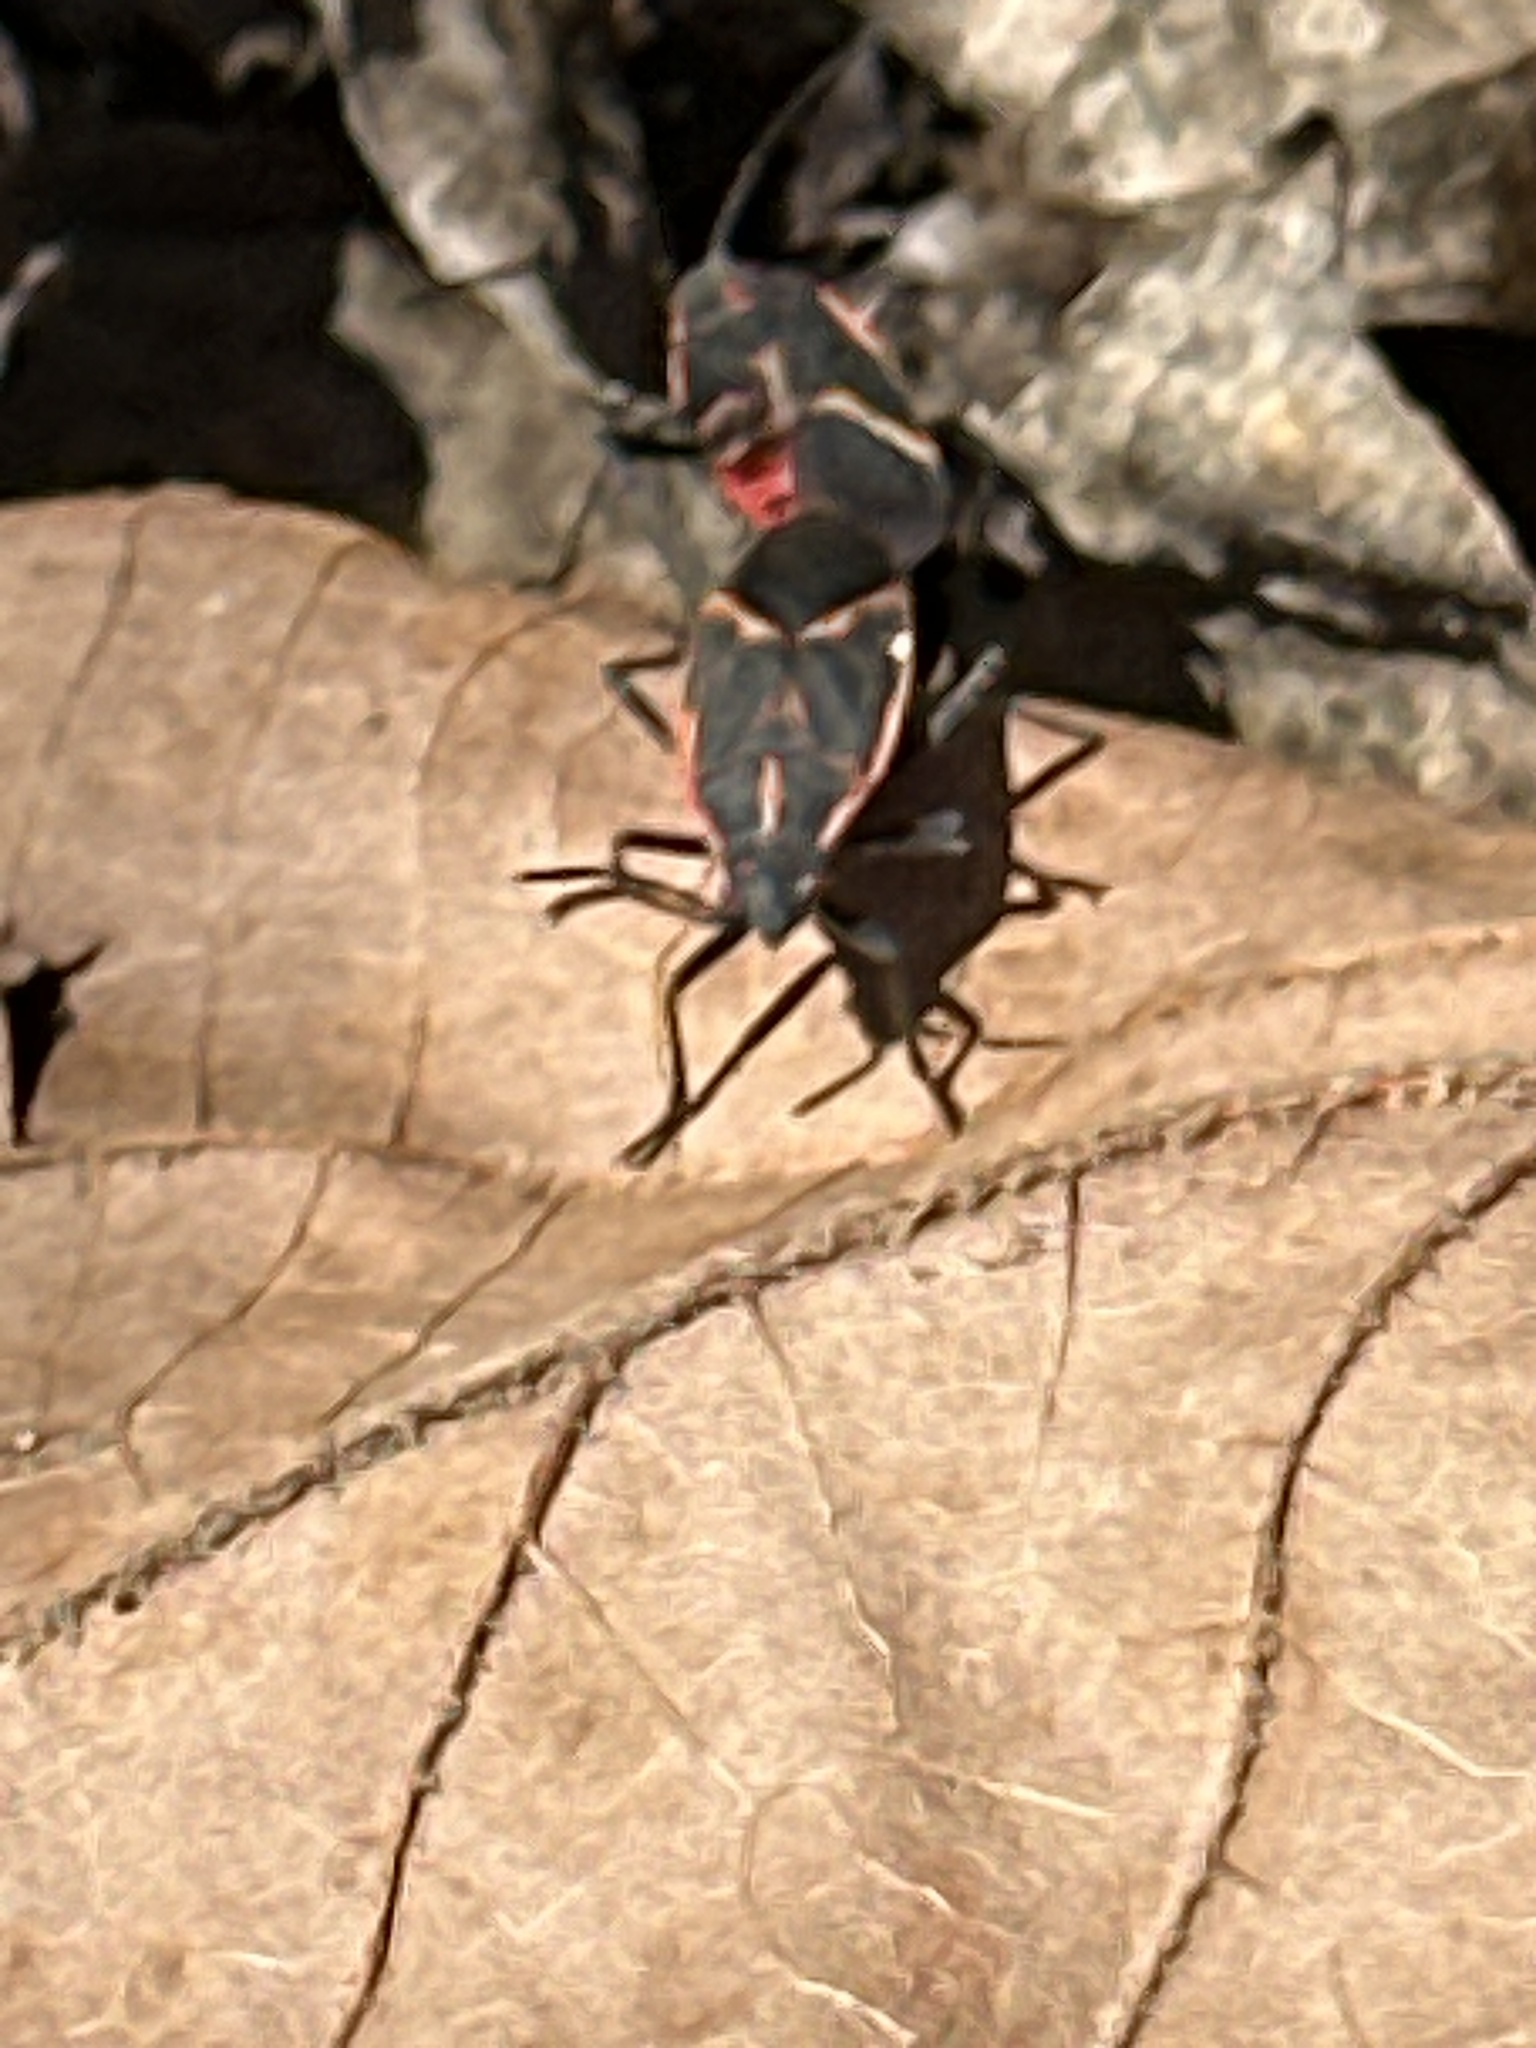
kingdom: Animalia
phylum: Arthropoda
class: Insecta
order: Hemiptera
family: Rhopalidae
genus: Boisea
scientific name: Boisea trivittata
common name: Boxelder bug
